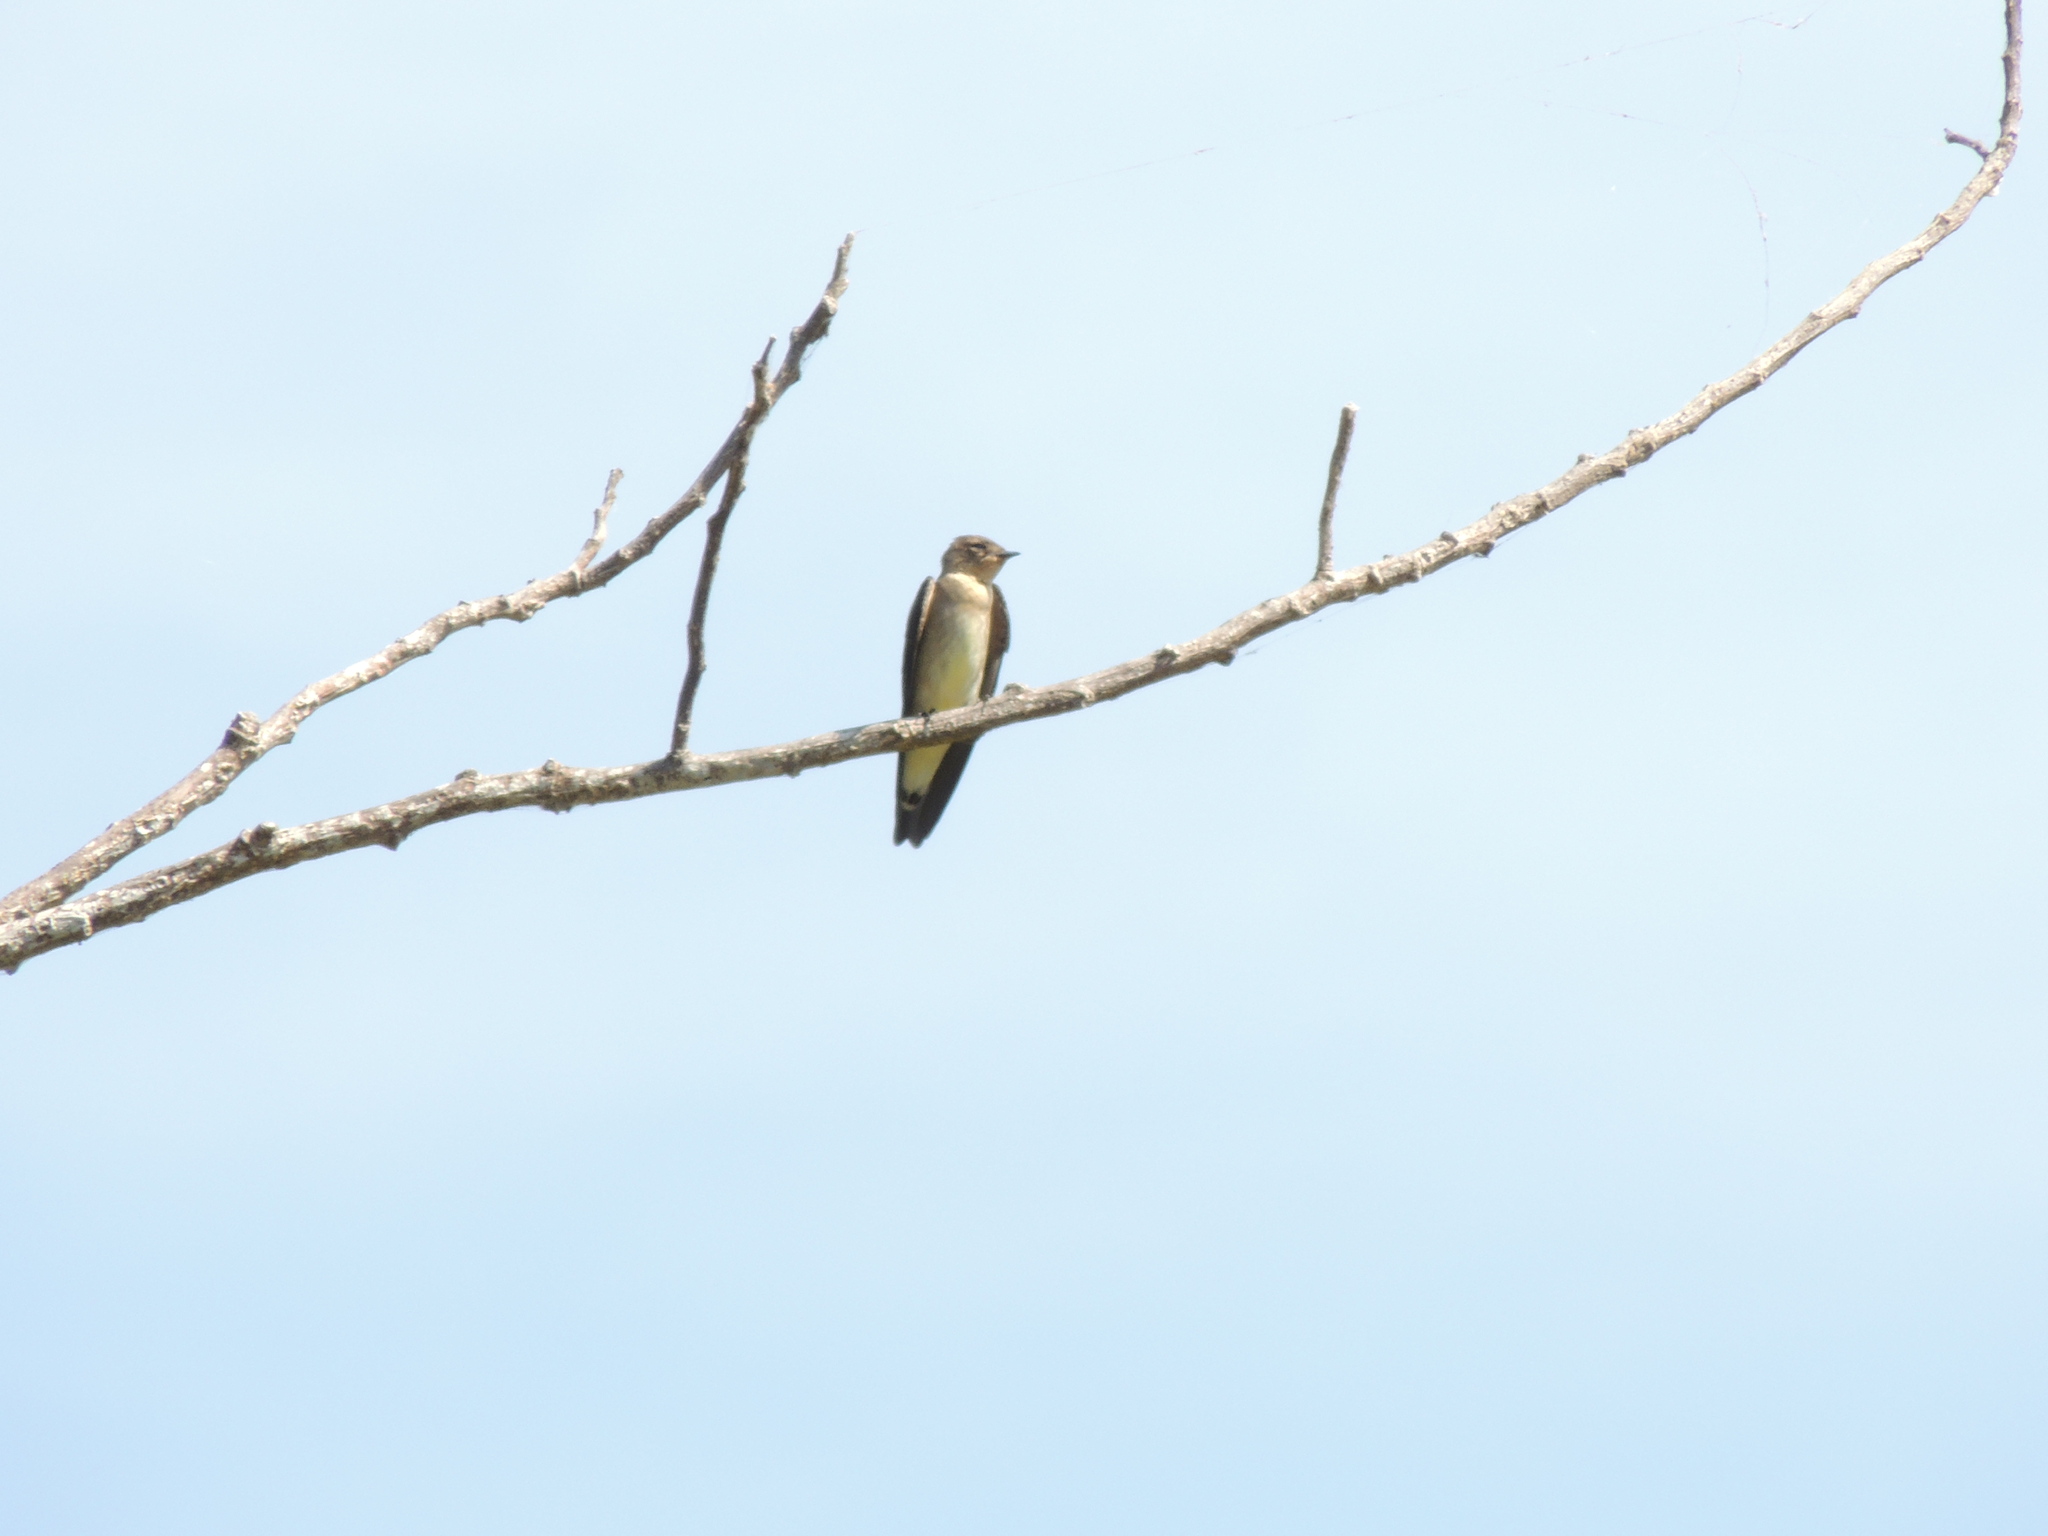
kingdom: Animalia
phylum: Chordata
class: Aves
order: Passeriformes
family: Hirundinidae
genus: Progne
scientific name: Progne tapera
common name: Brown-chested martin
